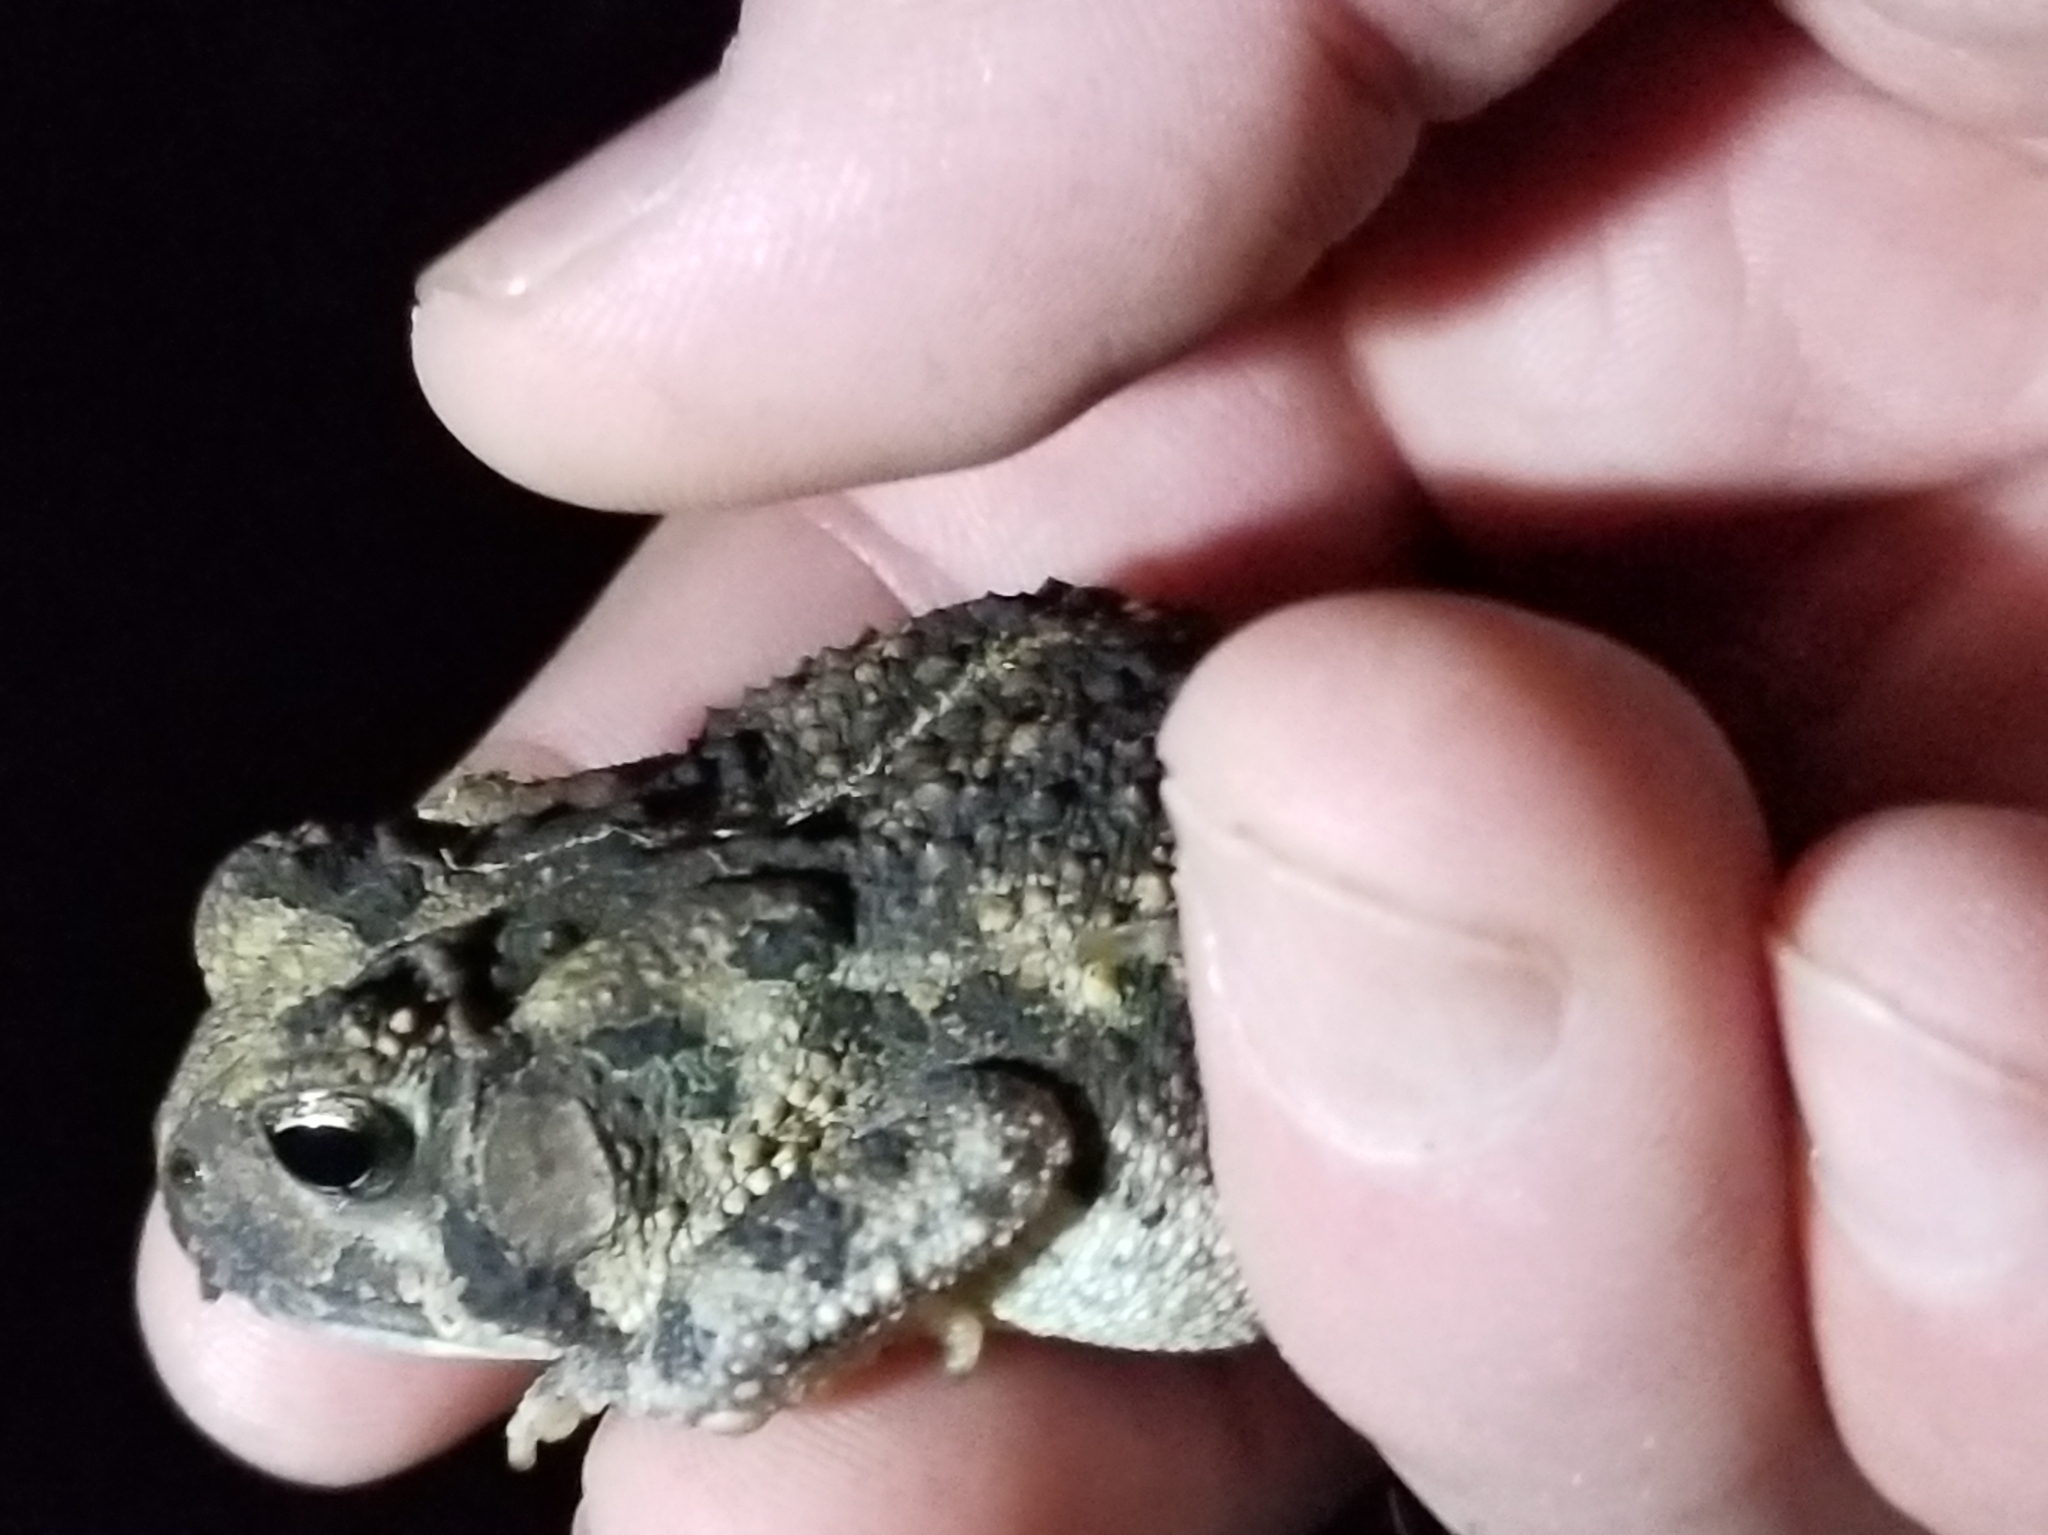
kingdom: Animalia
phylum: Chordata
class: Amphibia
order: Anura
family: Bufonidae
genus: Anaxyrus
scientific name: Anaxyrus fowleri
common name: Fowler's toad
